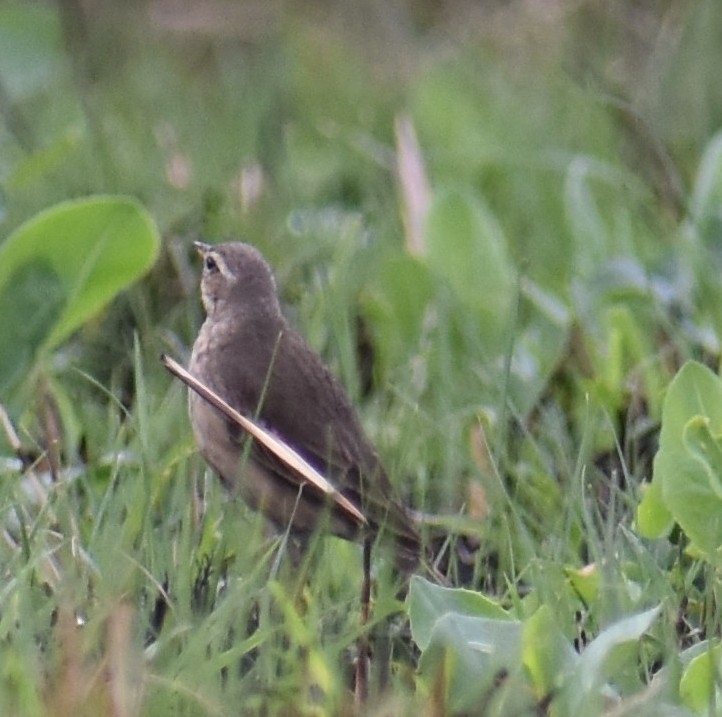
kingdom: Animalia
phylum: Chordata
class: Aves
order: Passeriformes
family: Motacillidae
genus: Anthus
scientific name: Anthus leucophrys
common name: Plain-backed pipit
